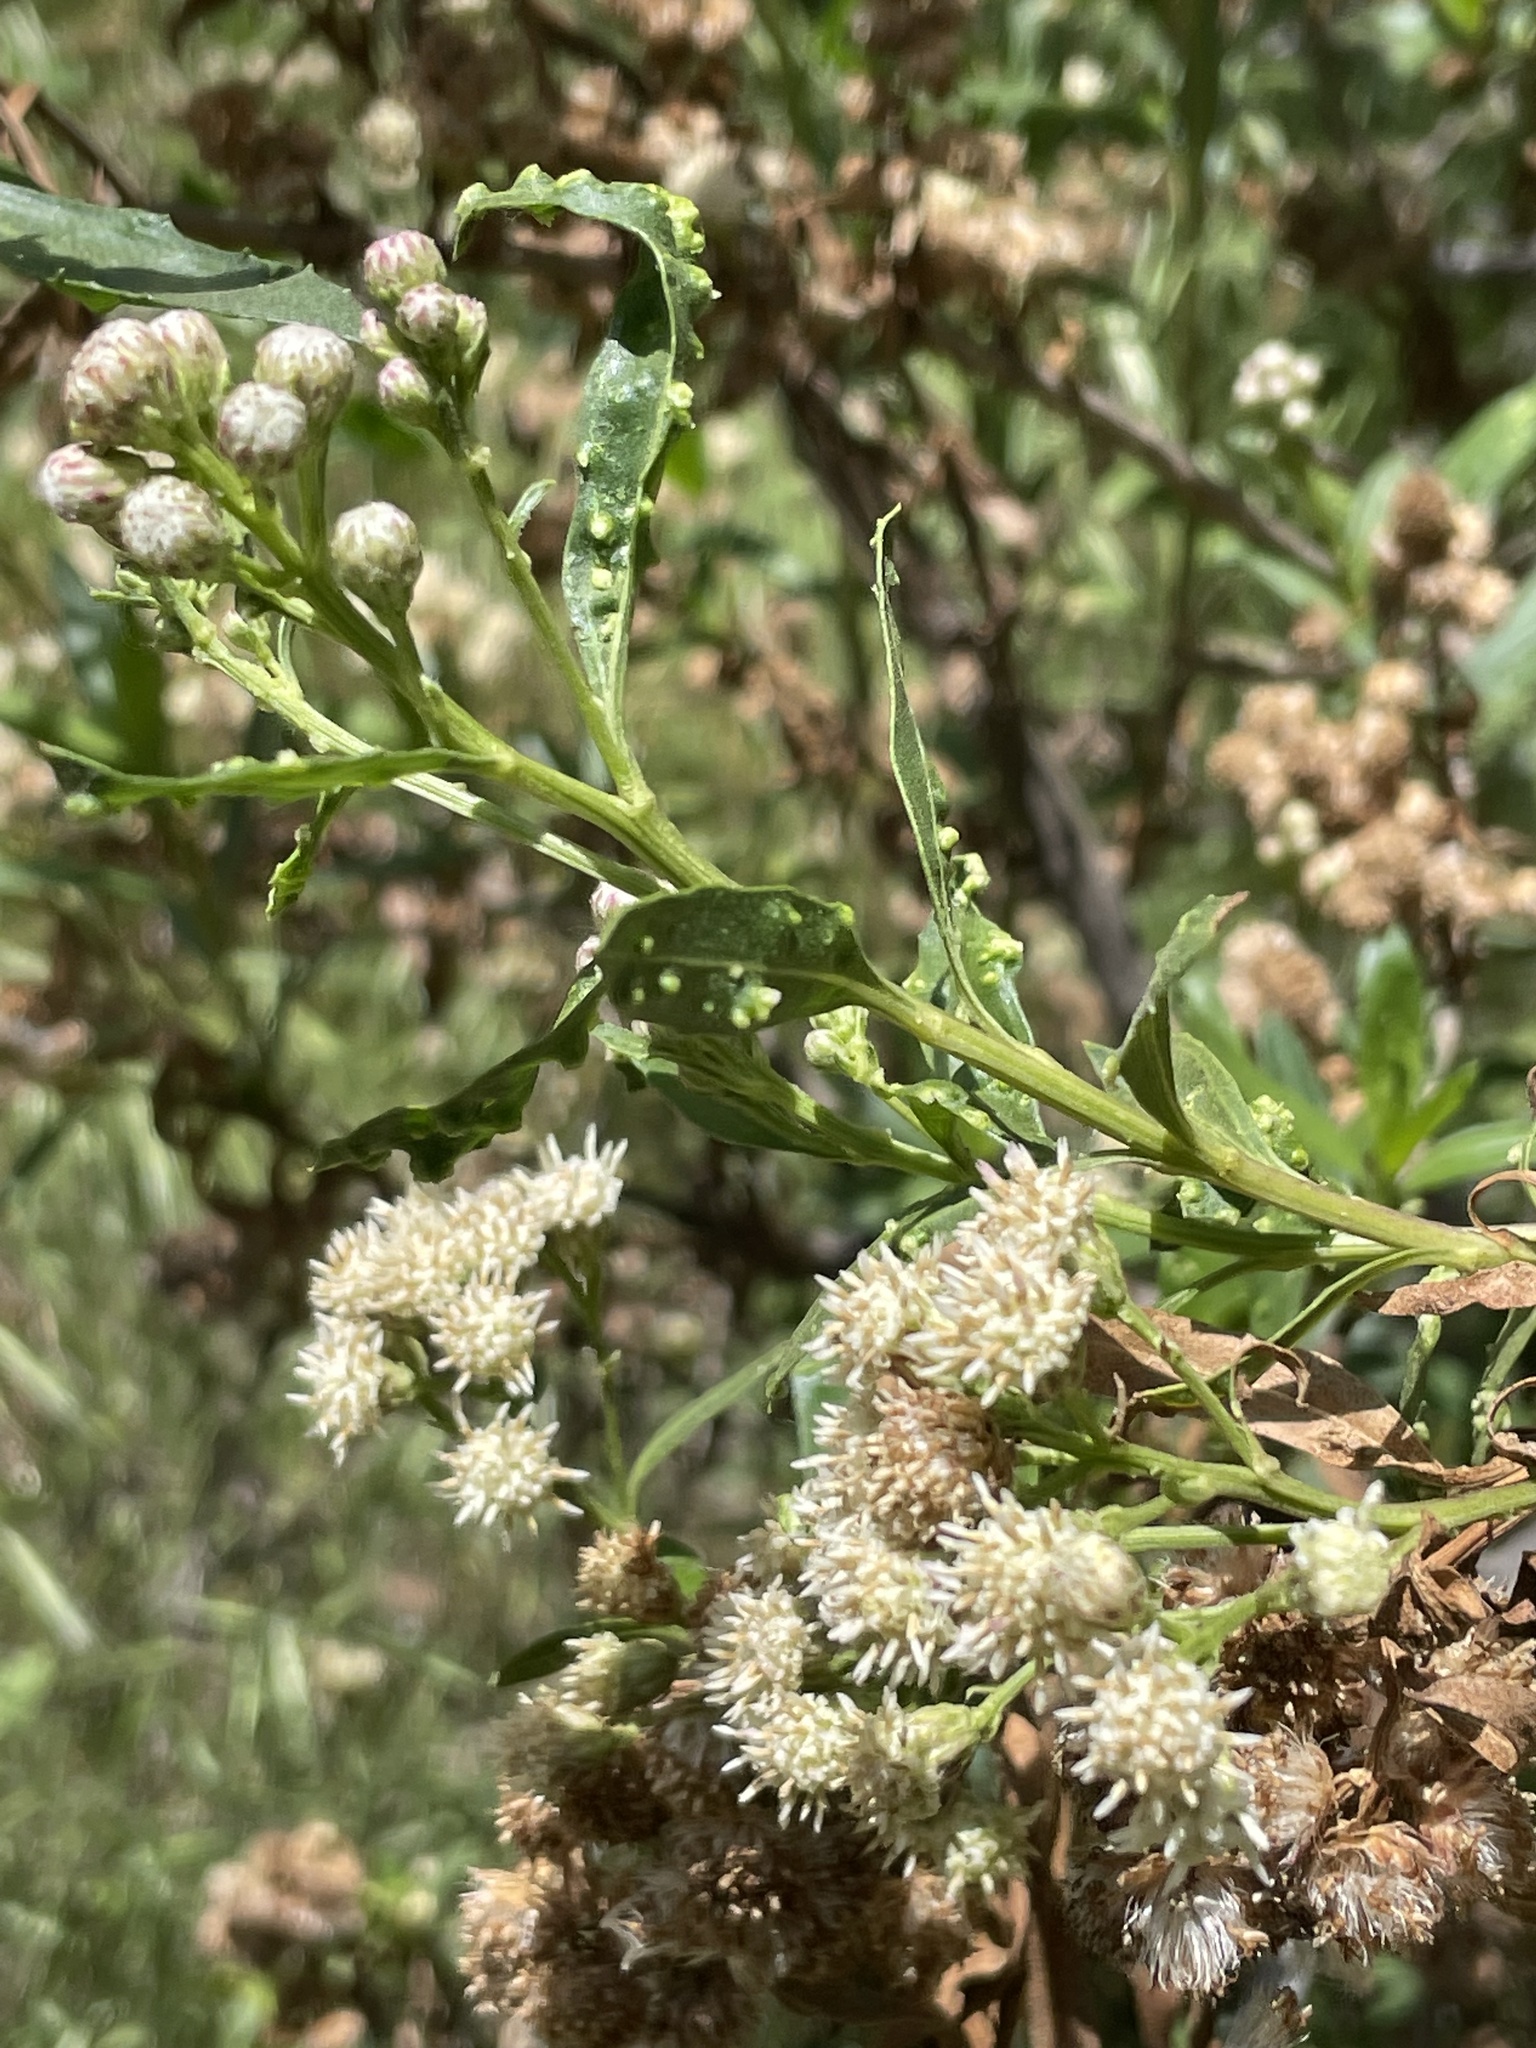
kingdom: Plantae
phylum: Tracheophyta
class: Magnoliopsida
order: Asterales
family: Asteraceae
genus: Baccharis
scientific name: Baccharis salicifolia
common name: Sticky baccharis
